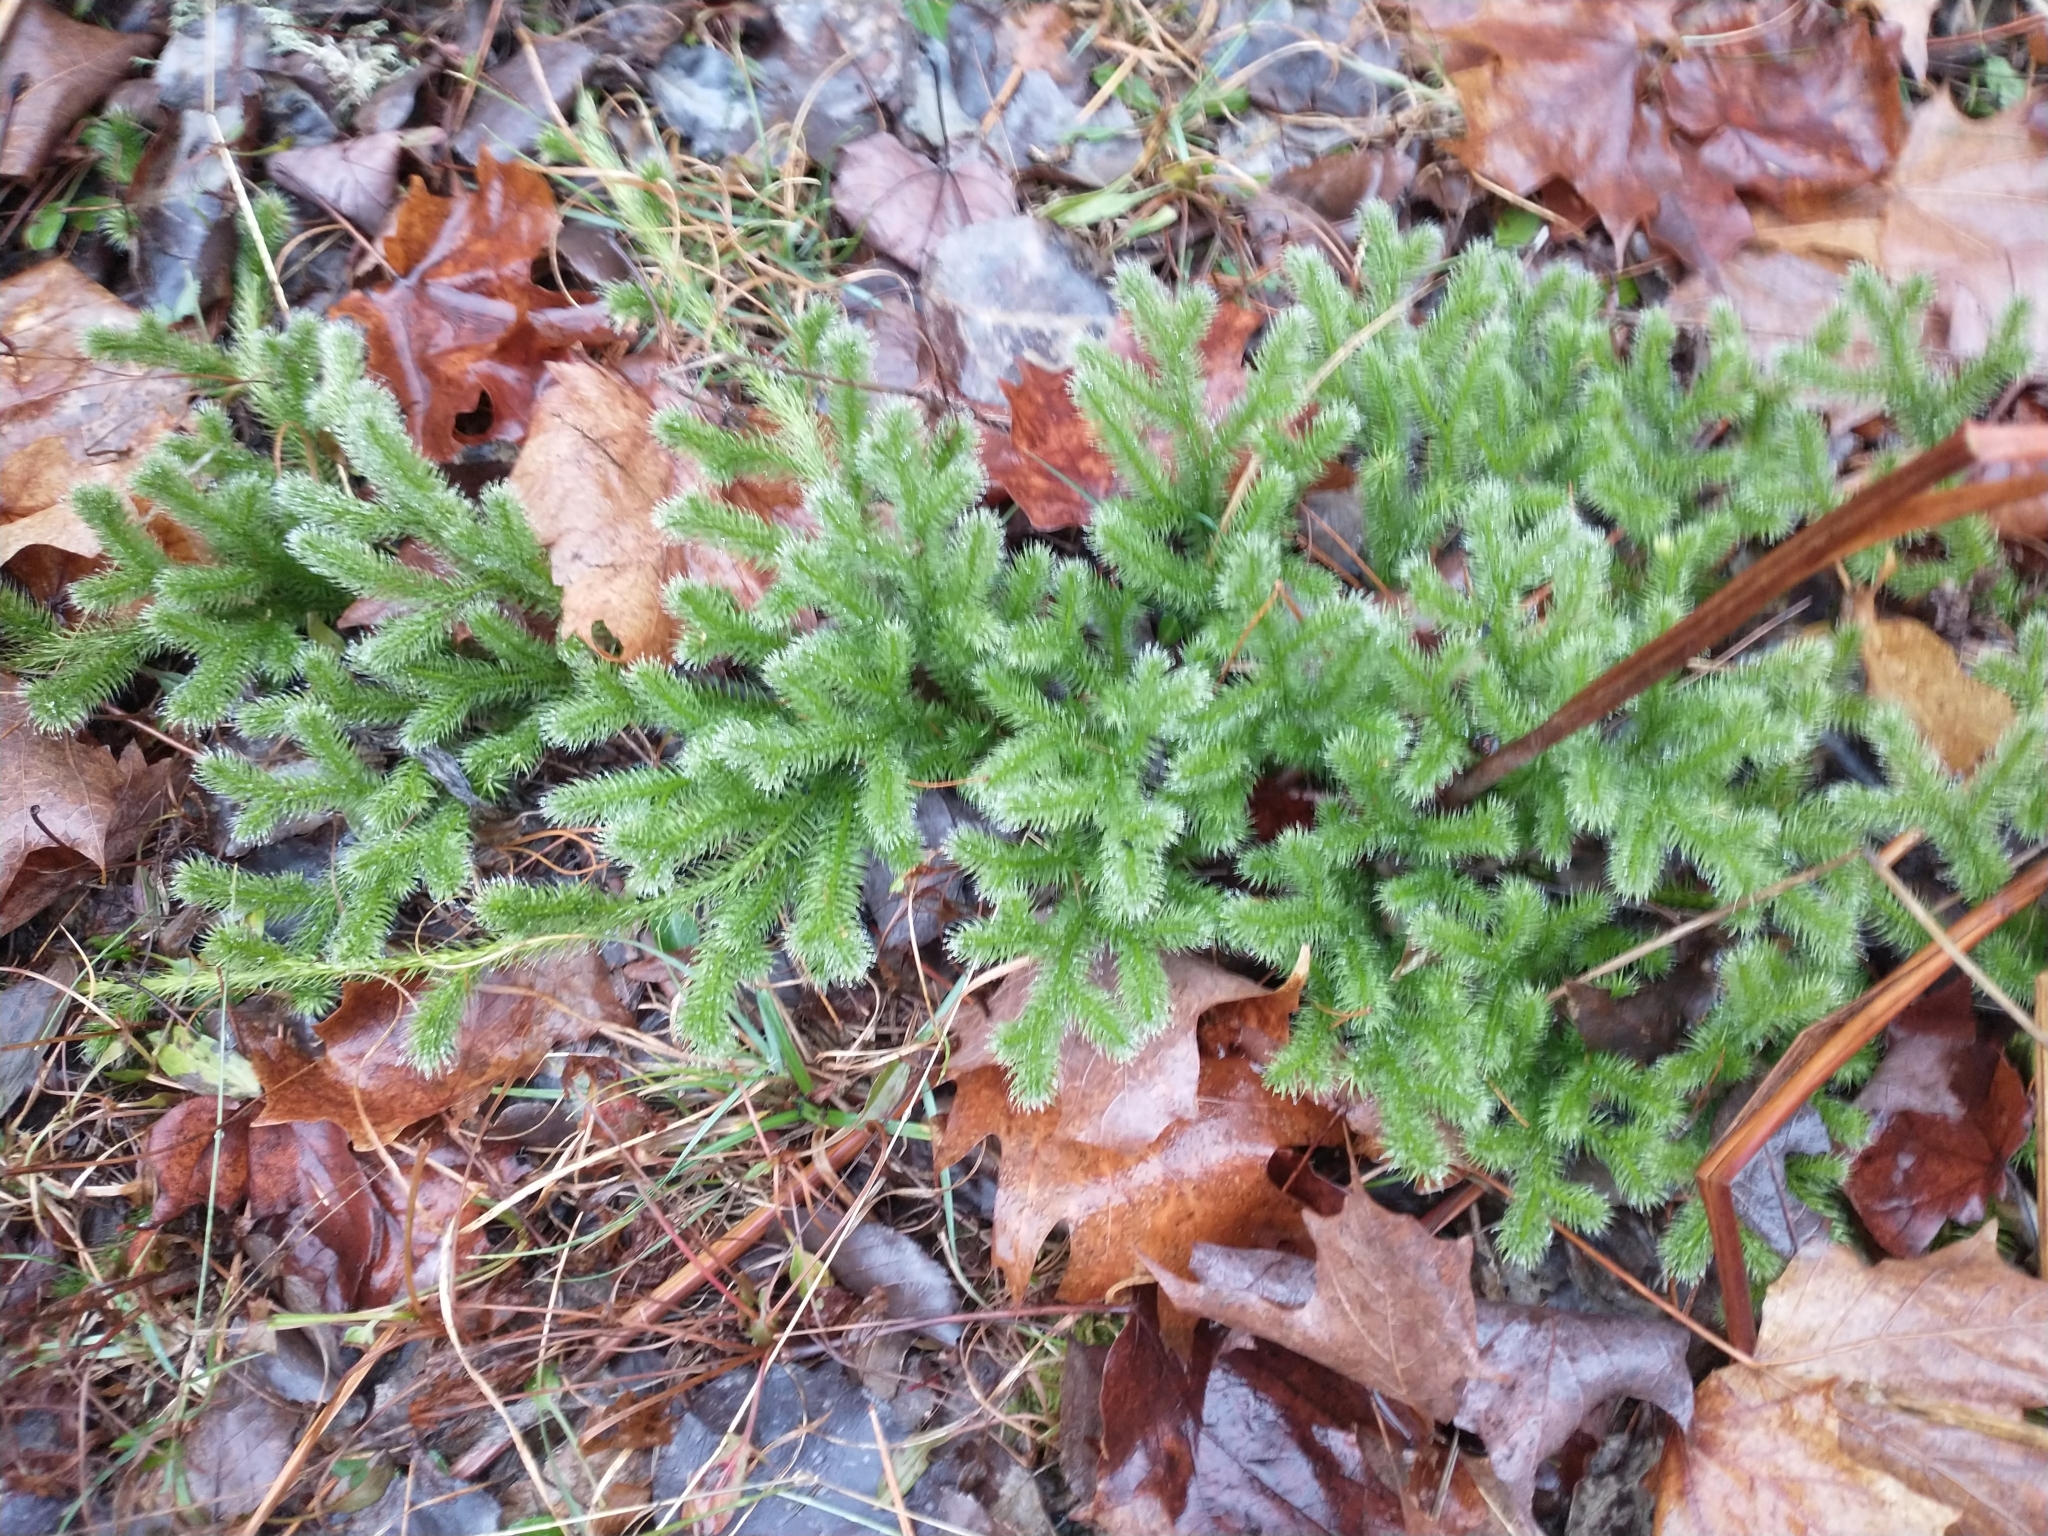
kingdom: Plantae
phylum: Tracheophyta
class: Lycopodiopsida
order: Lycopodiales
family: Lycopodiaceae
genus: Lycopodium
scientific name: Lycopodium clavatum
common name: Stag's-horn clubmoss
